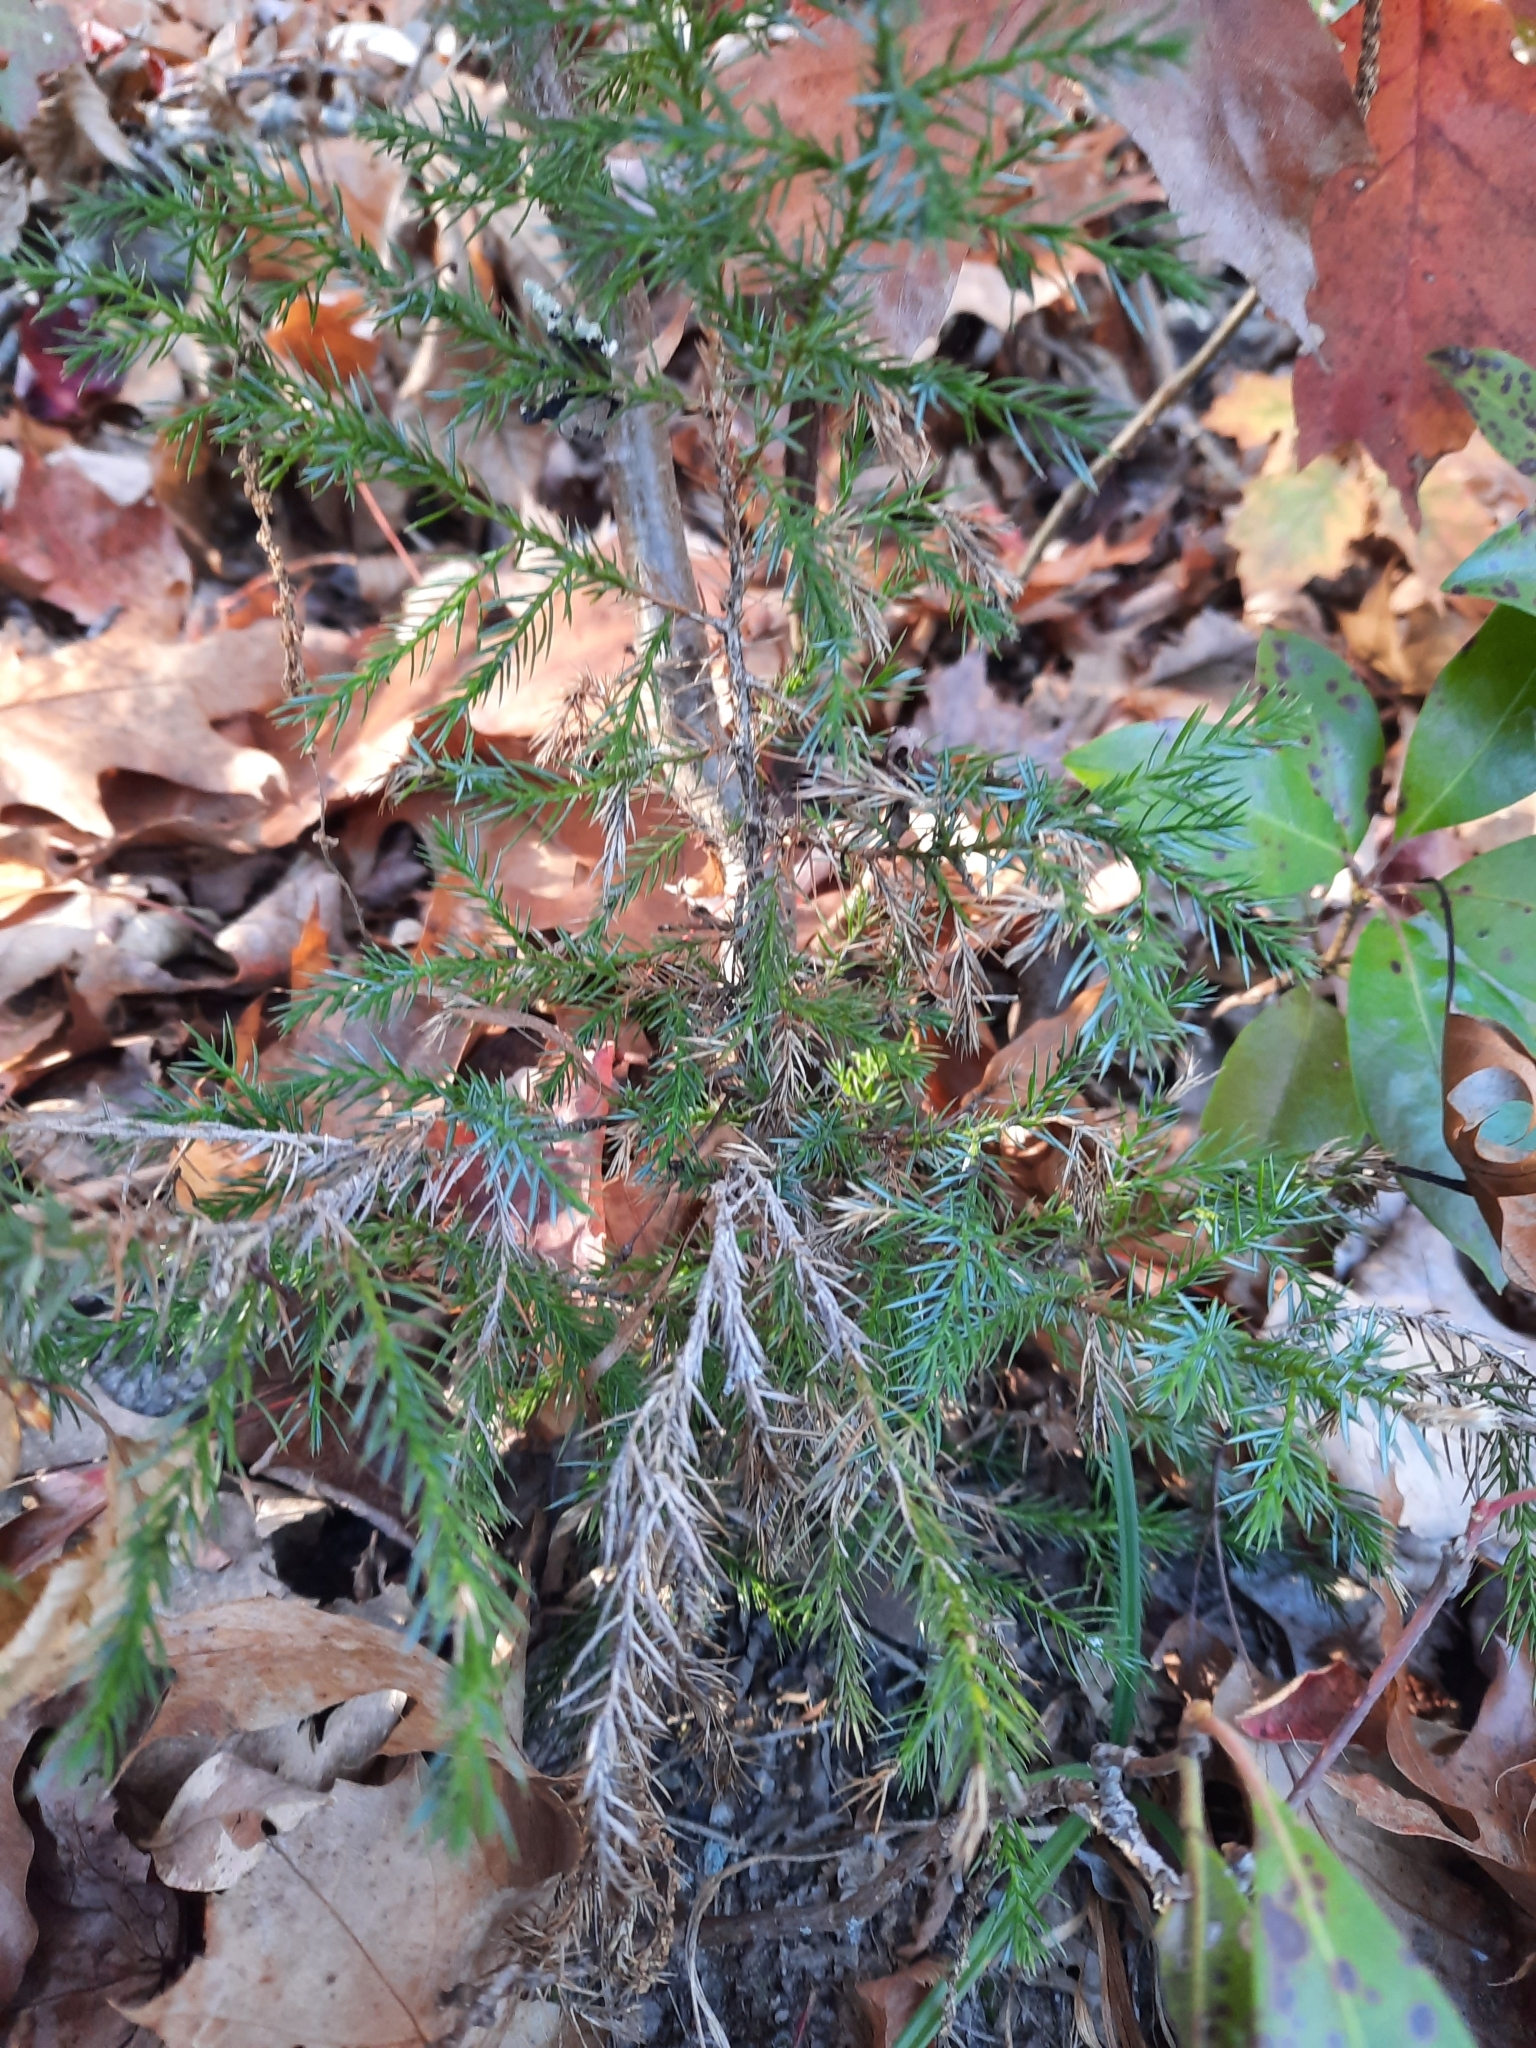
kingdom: Plantae
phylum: Tracheophyta
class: Pinopsida
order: Pinales
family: Cupressaceae
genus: Juniperus
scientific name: Juniperus virginiana
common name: Red juniper
